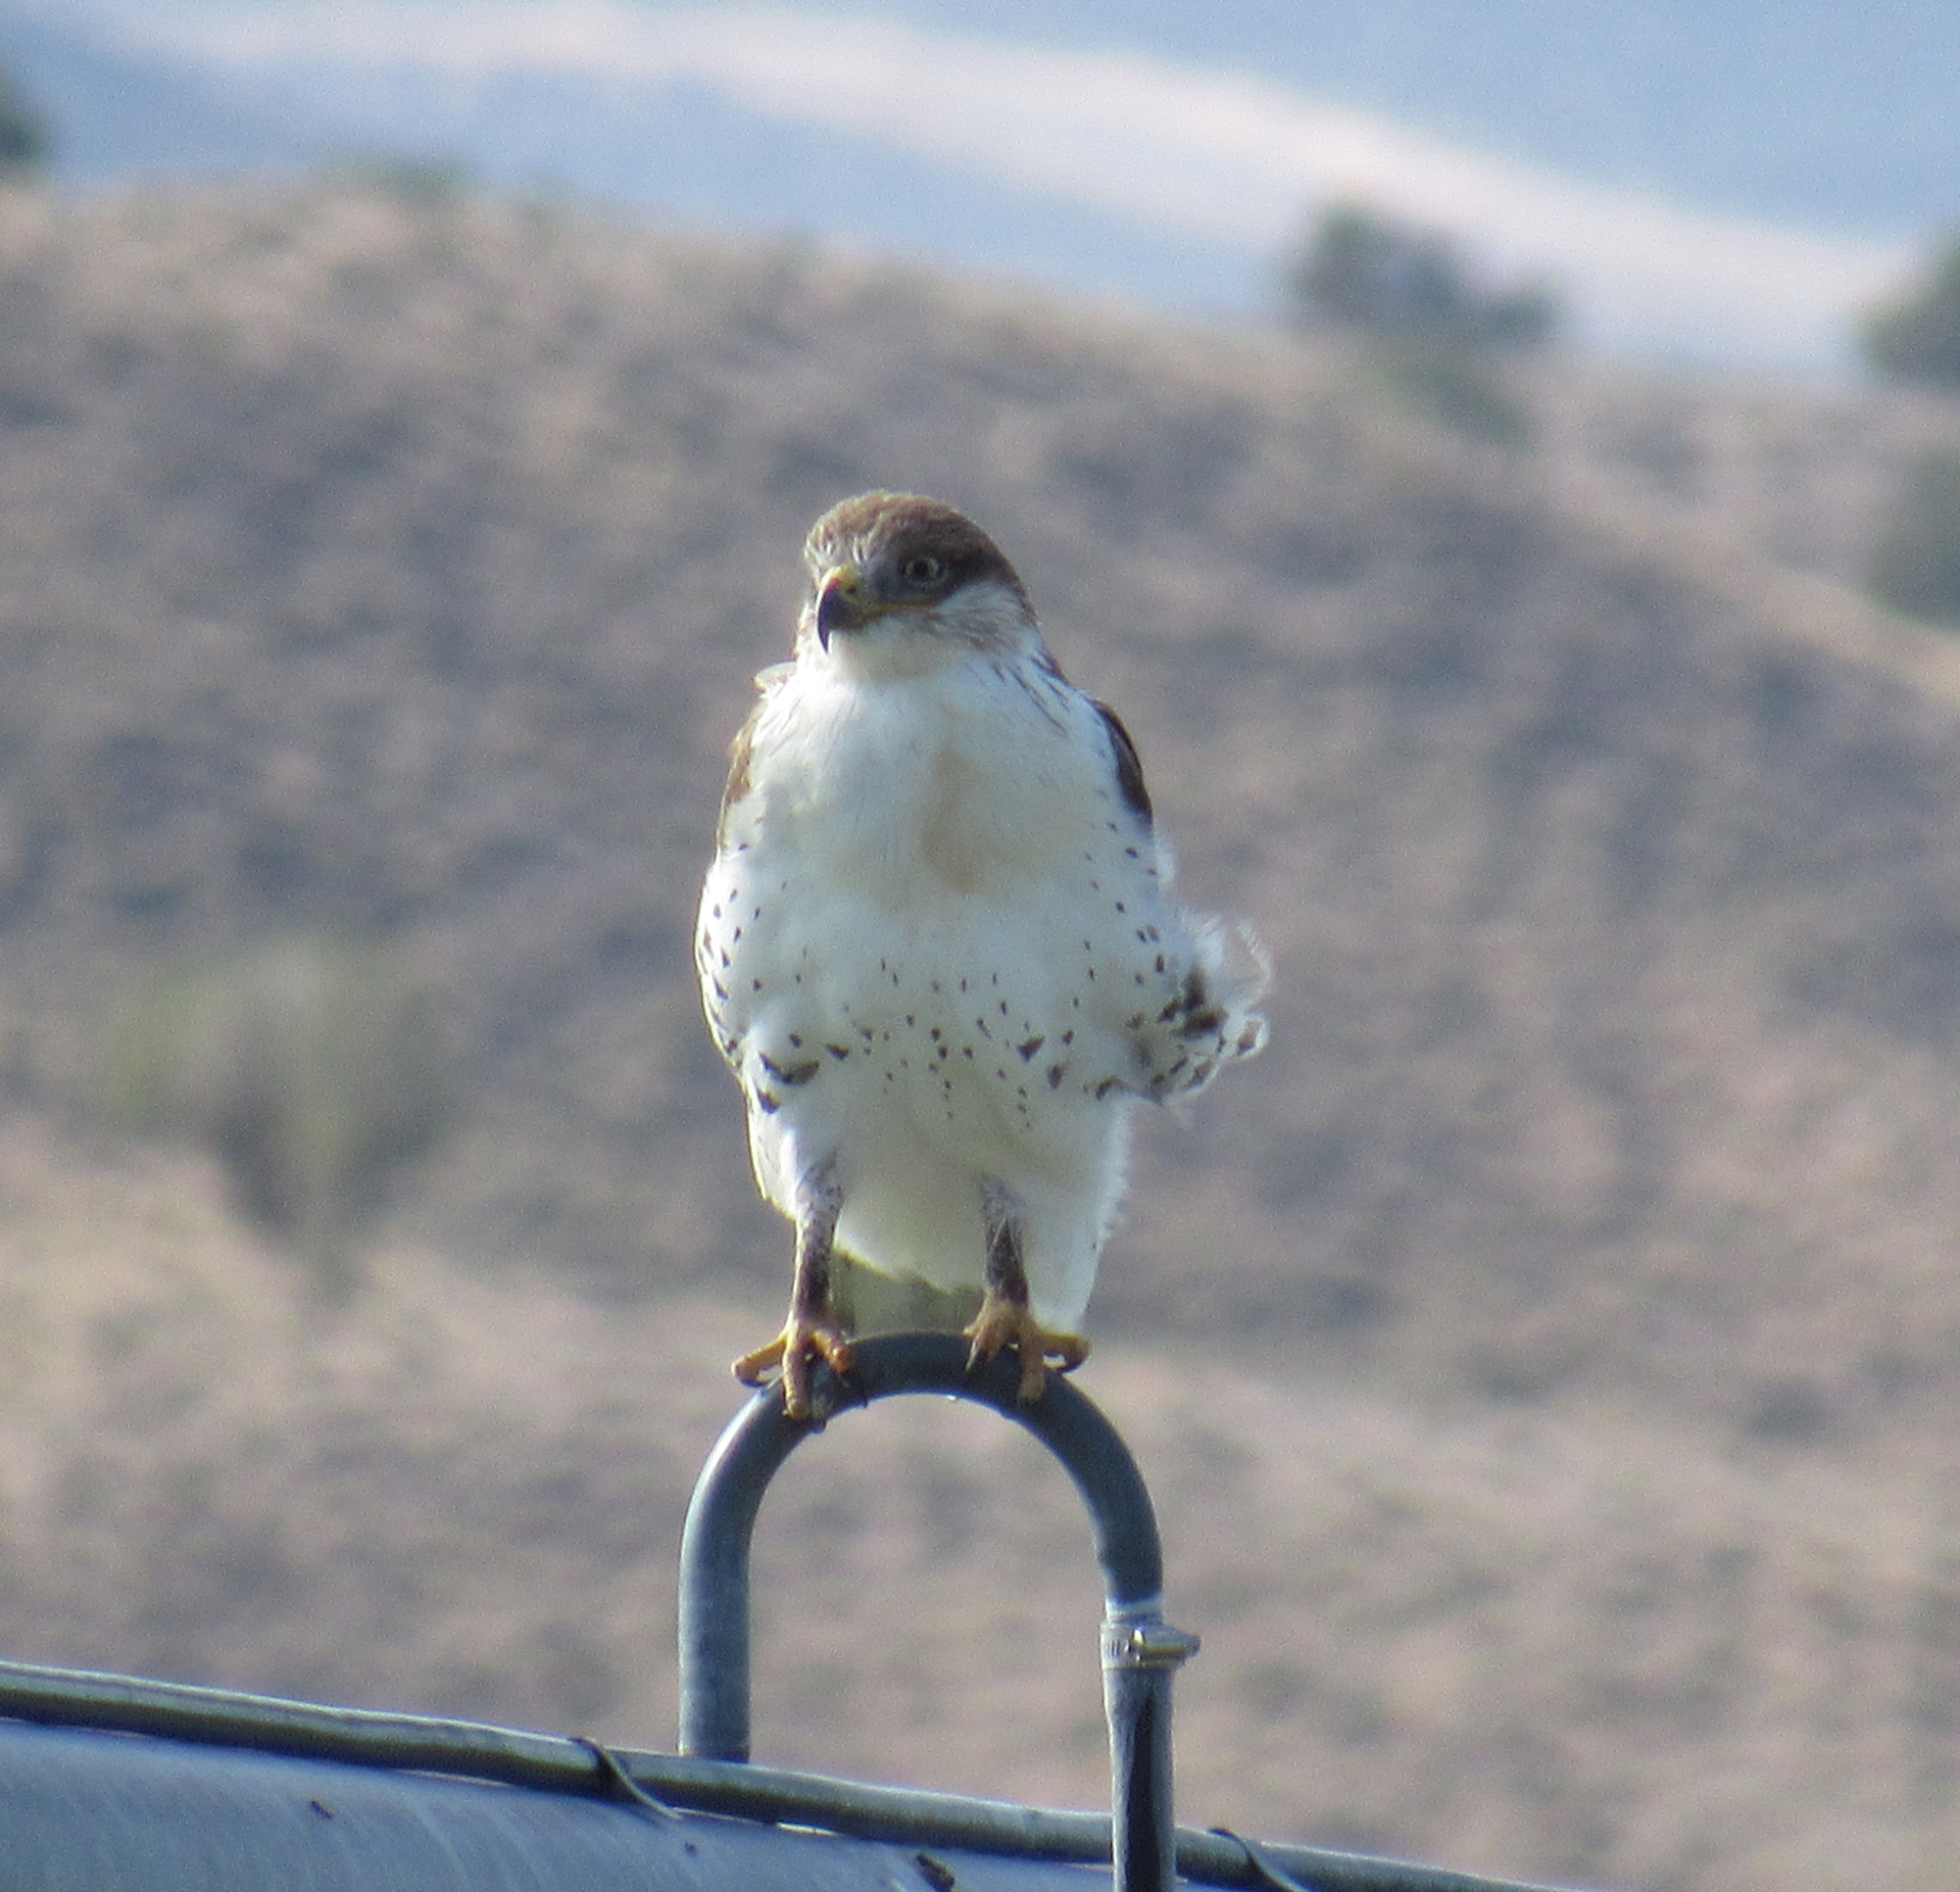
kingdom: Animalia
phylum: Chordata
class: Aves
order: Accipitriformes
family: Accipitridae
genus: Buteo
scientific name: Buteo regalis
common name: Ferruginous hawk
